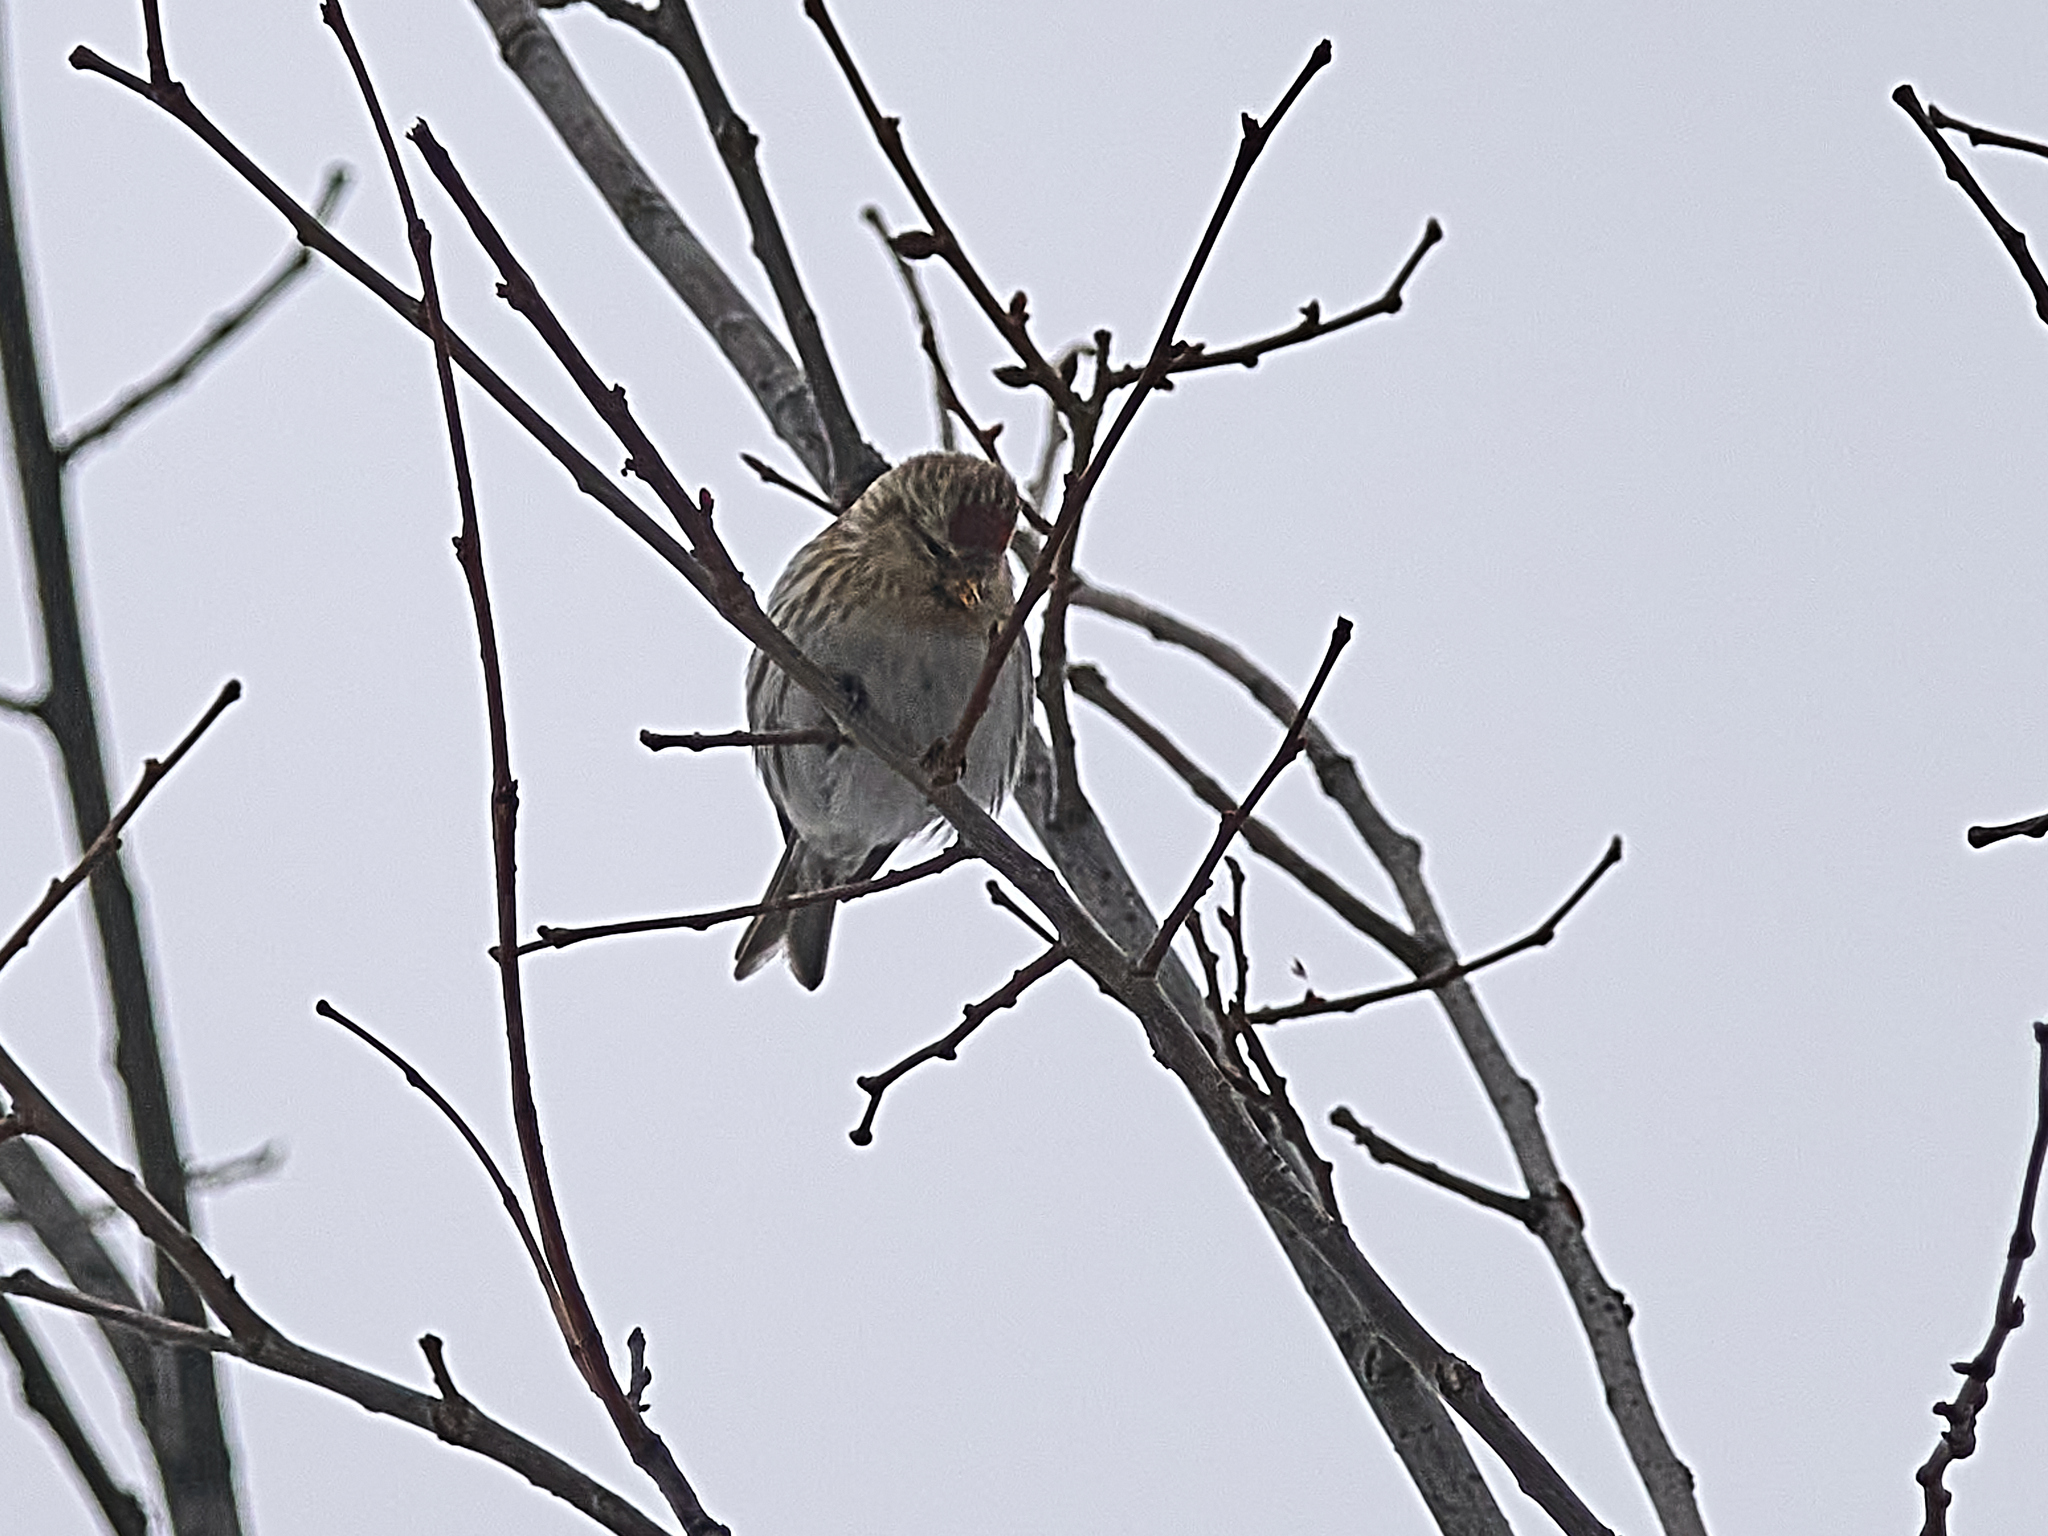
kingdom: Animalia
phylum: Chordata
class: Aves
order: Passeriformes
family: Fringillidae
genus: Acanthis
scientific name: Acanthis flammea
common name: Common redpoll
